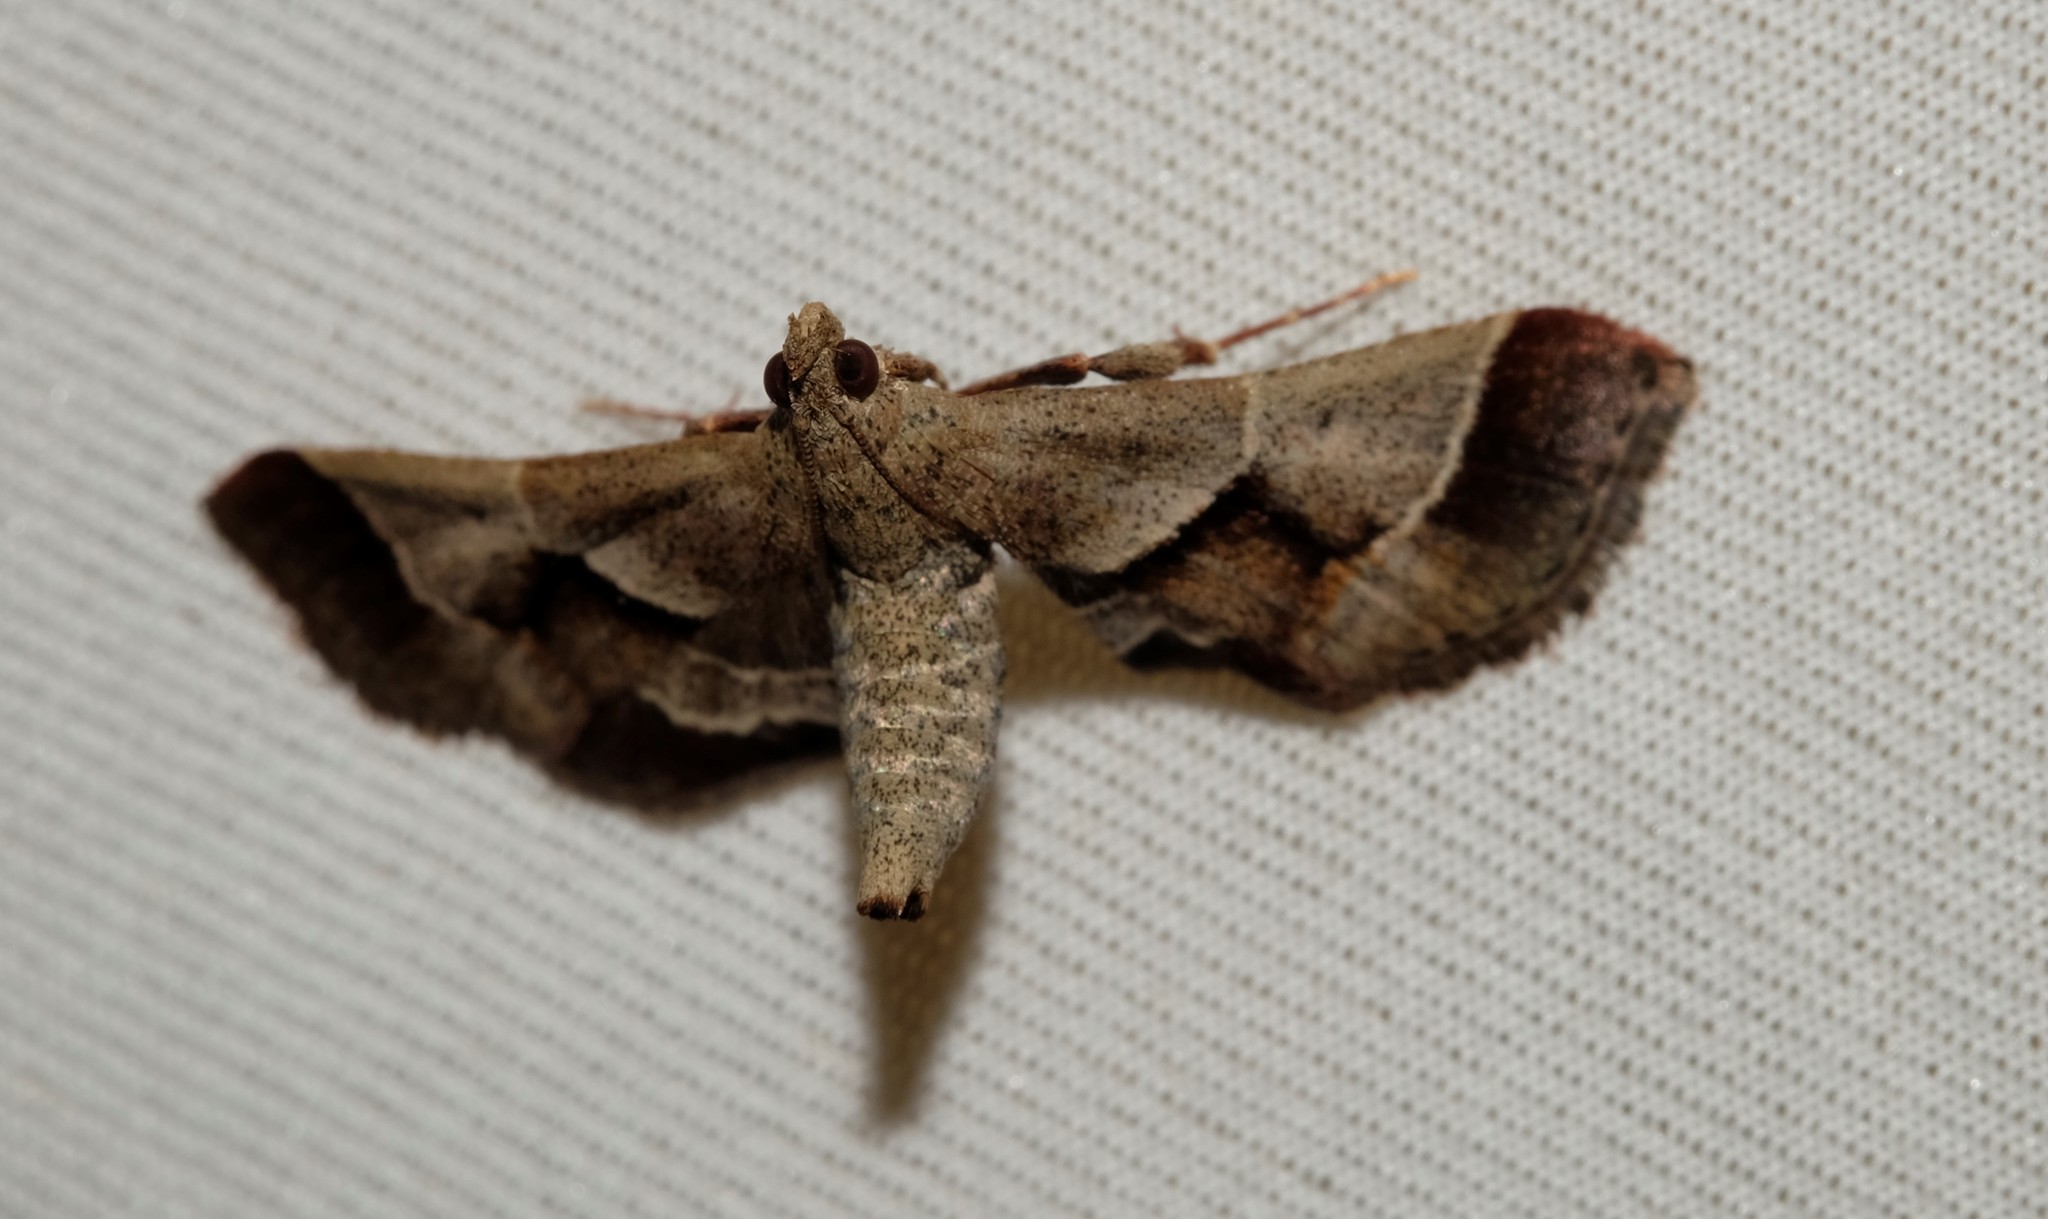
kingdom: Animalia
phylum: Arthropoda
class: Insecta
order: Lepidoptera
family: Pyralidae
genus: Gauna
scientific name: Gauna aegusalis
